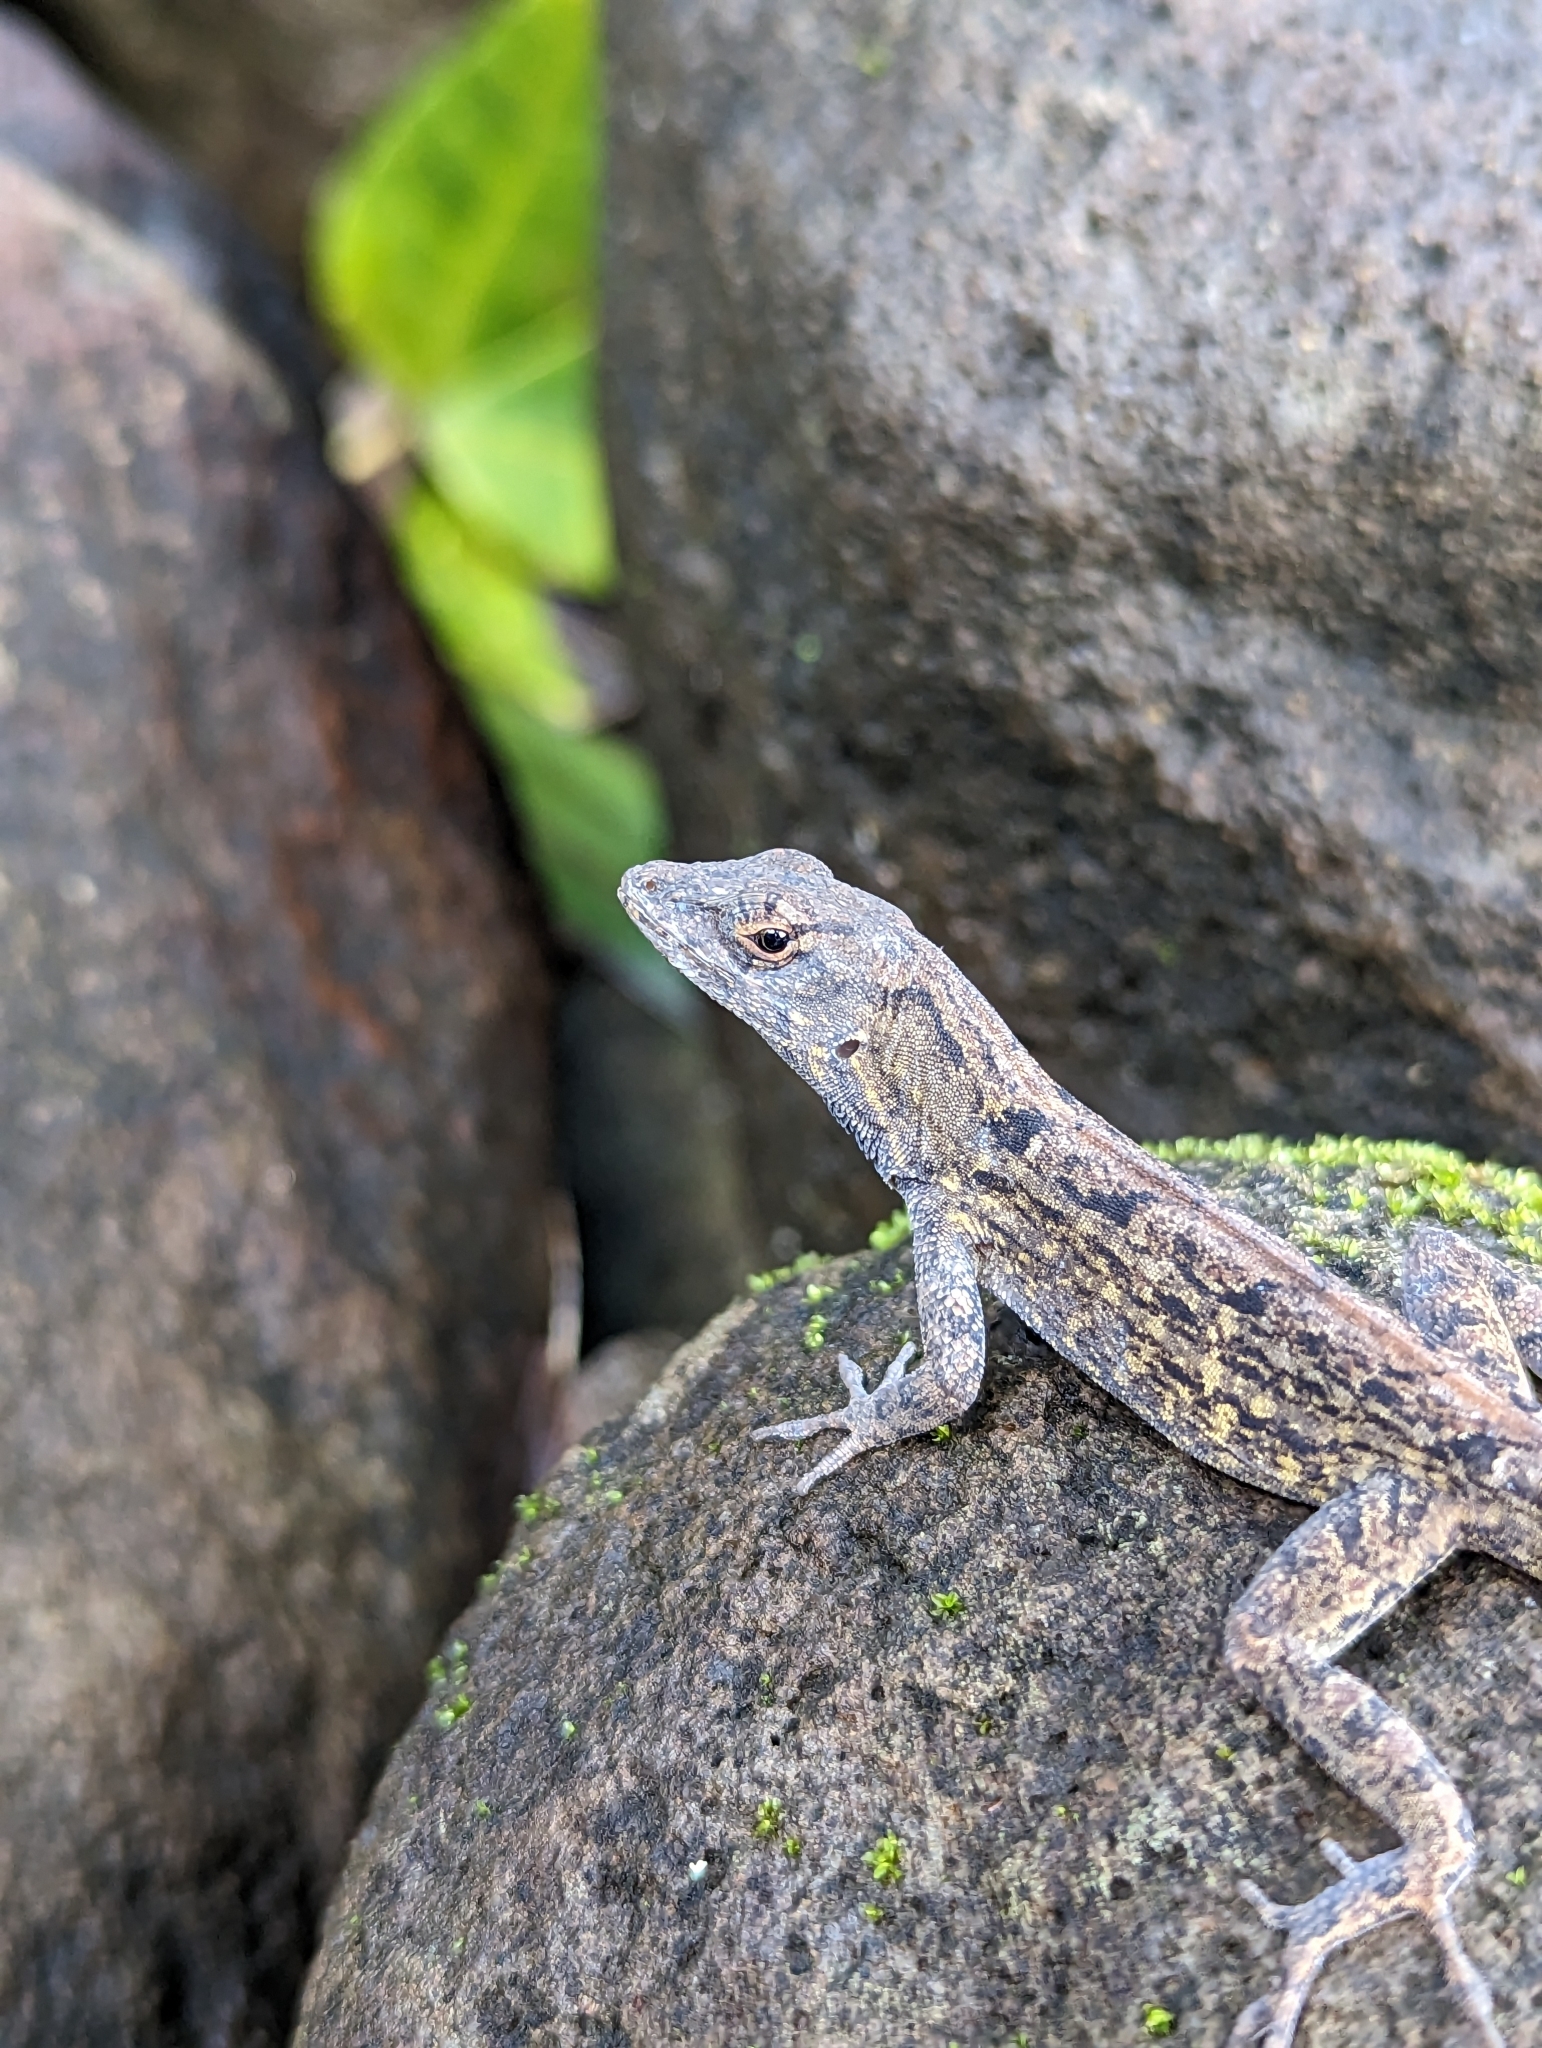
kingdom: Animalia
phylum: Chordata
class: Squamata
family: Dactyloidae
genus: Anolis
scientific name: Anolis sagrei
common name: Brown anole
